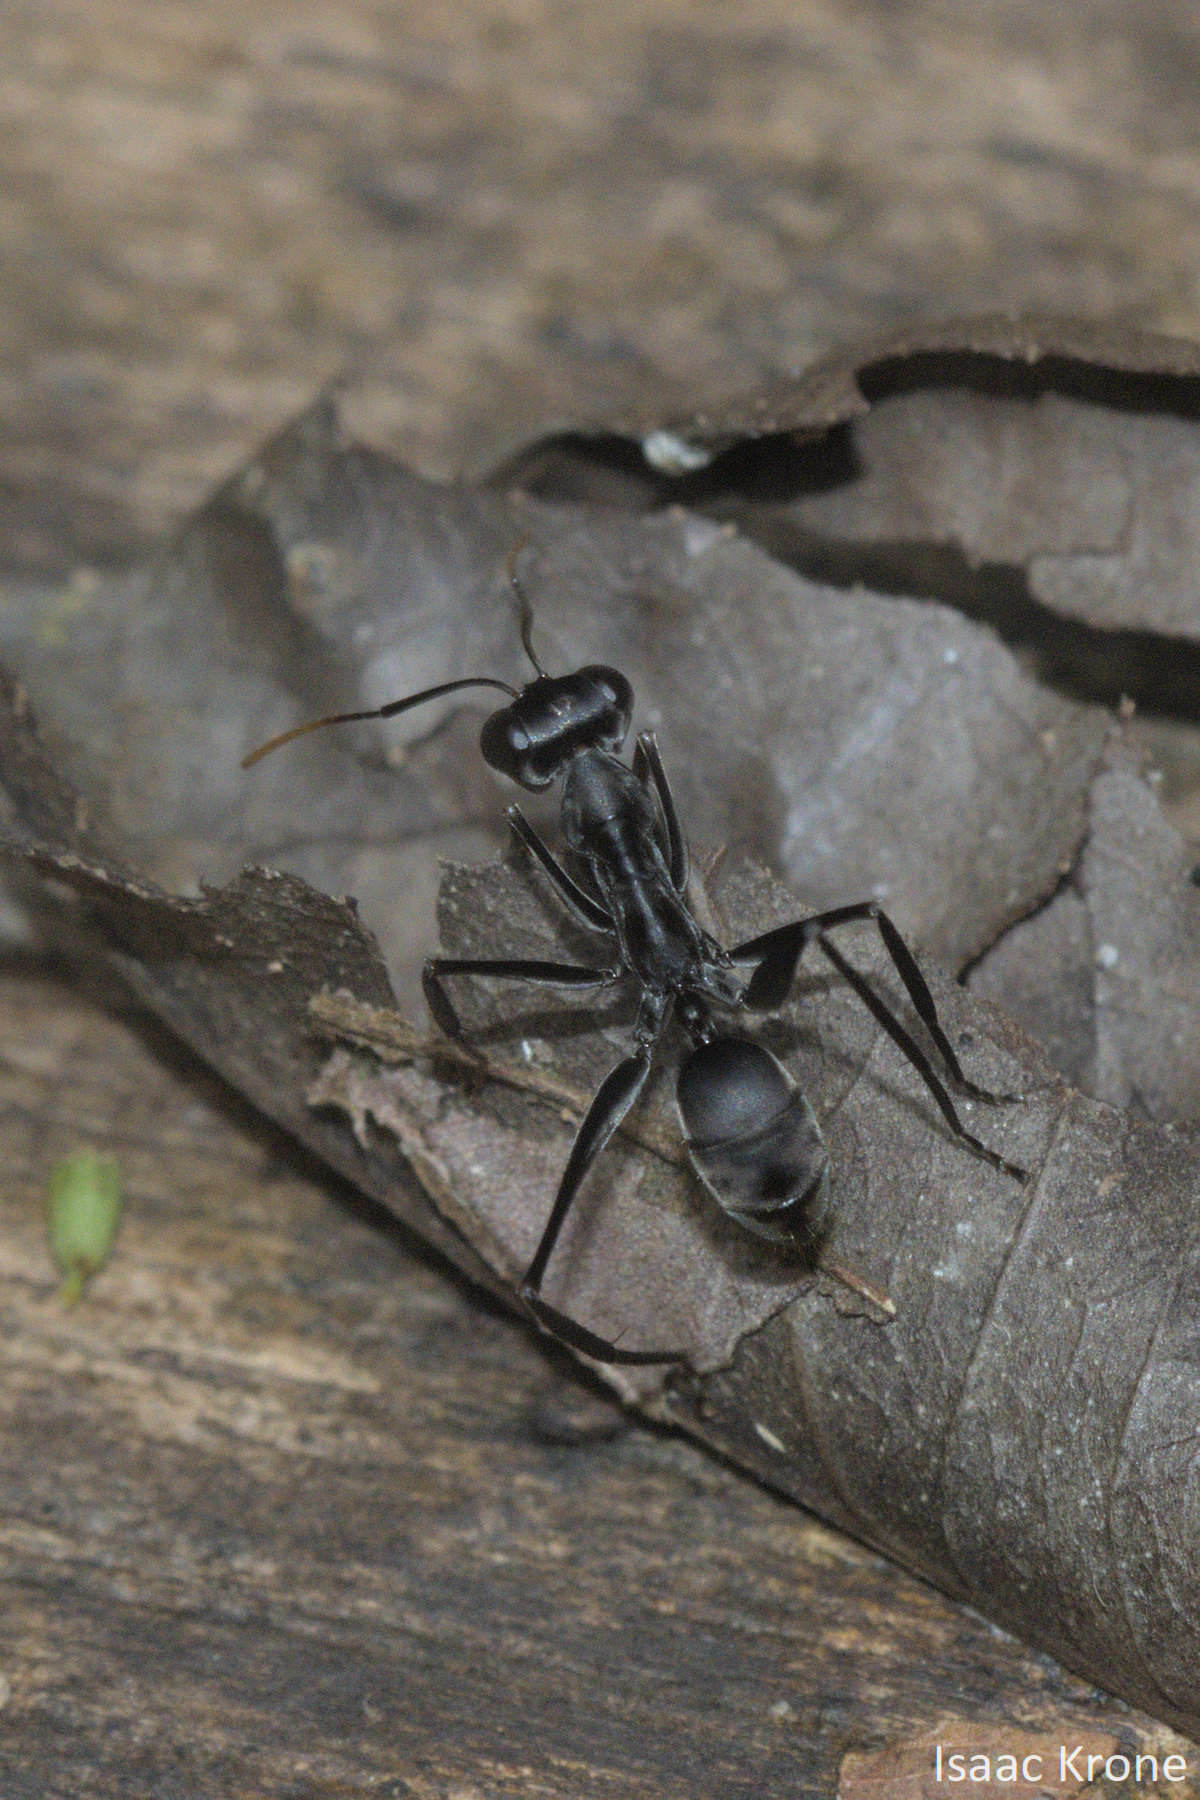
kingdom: Animalia
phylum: Arthropoda
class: Insecta
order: Hymenoptera
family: Formicidae
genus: Gigantiops
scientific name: Gigantiops destructor
